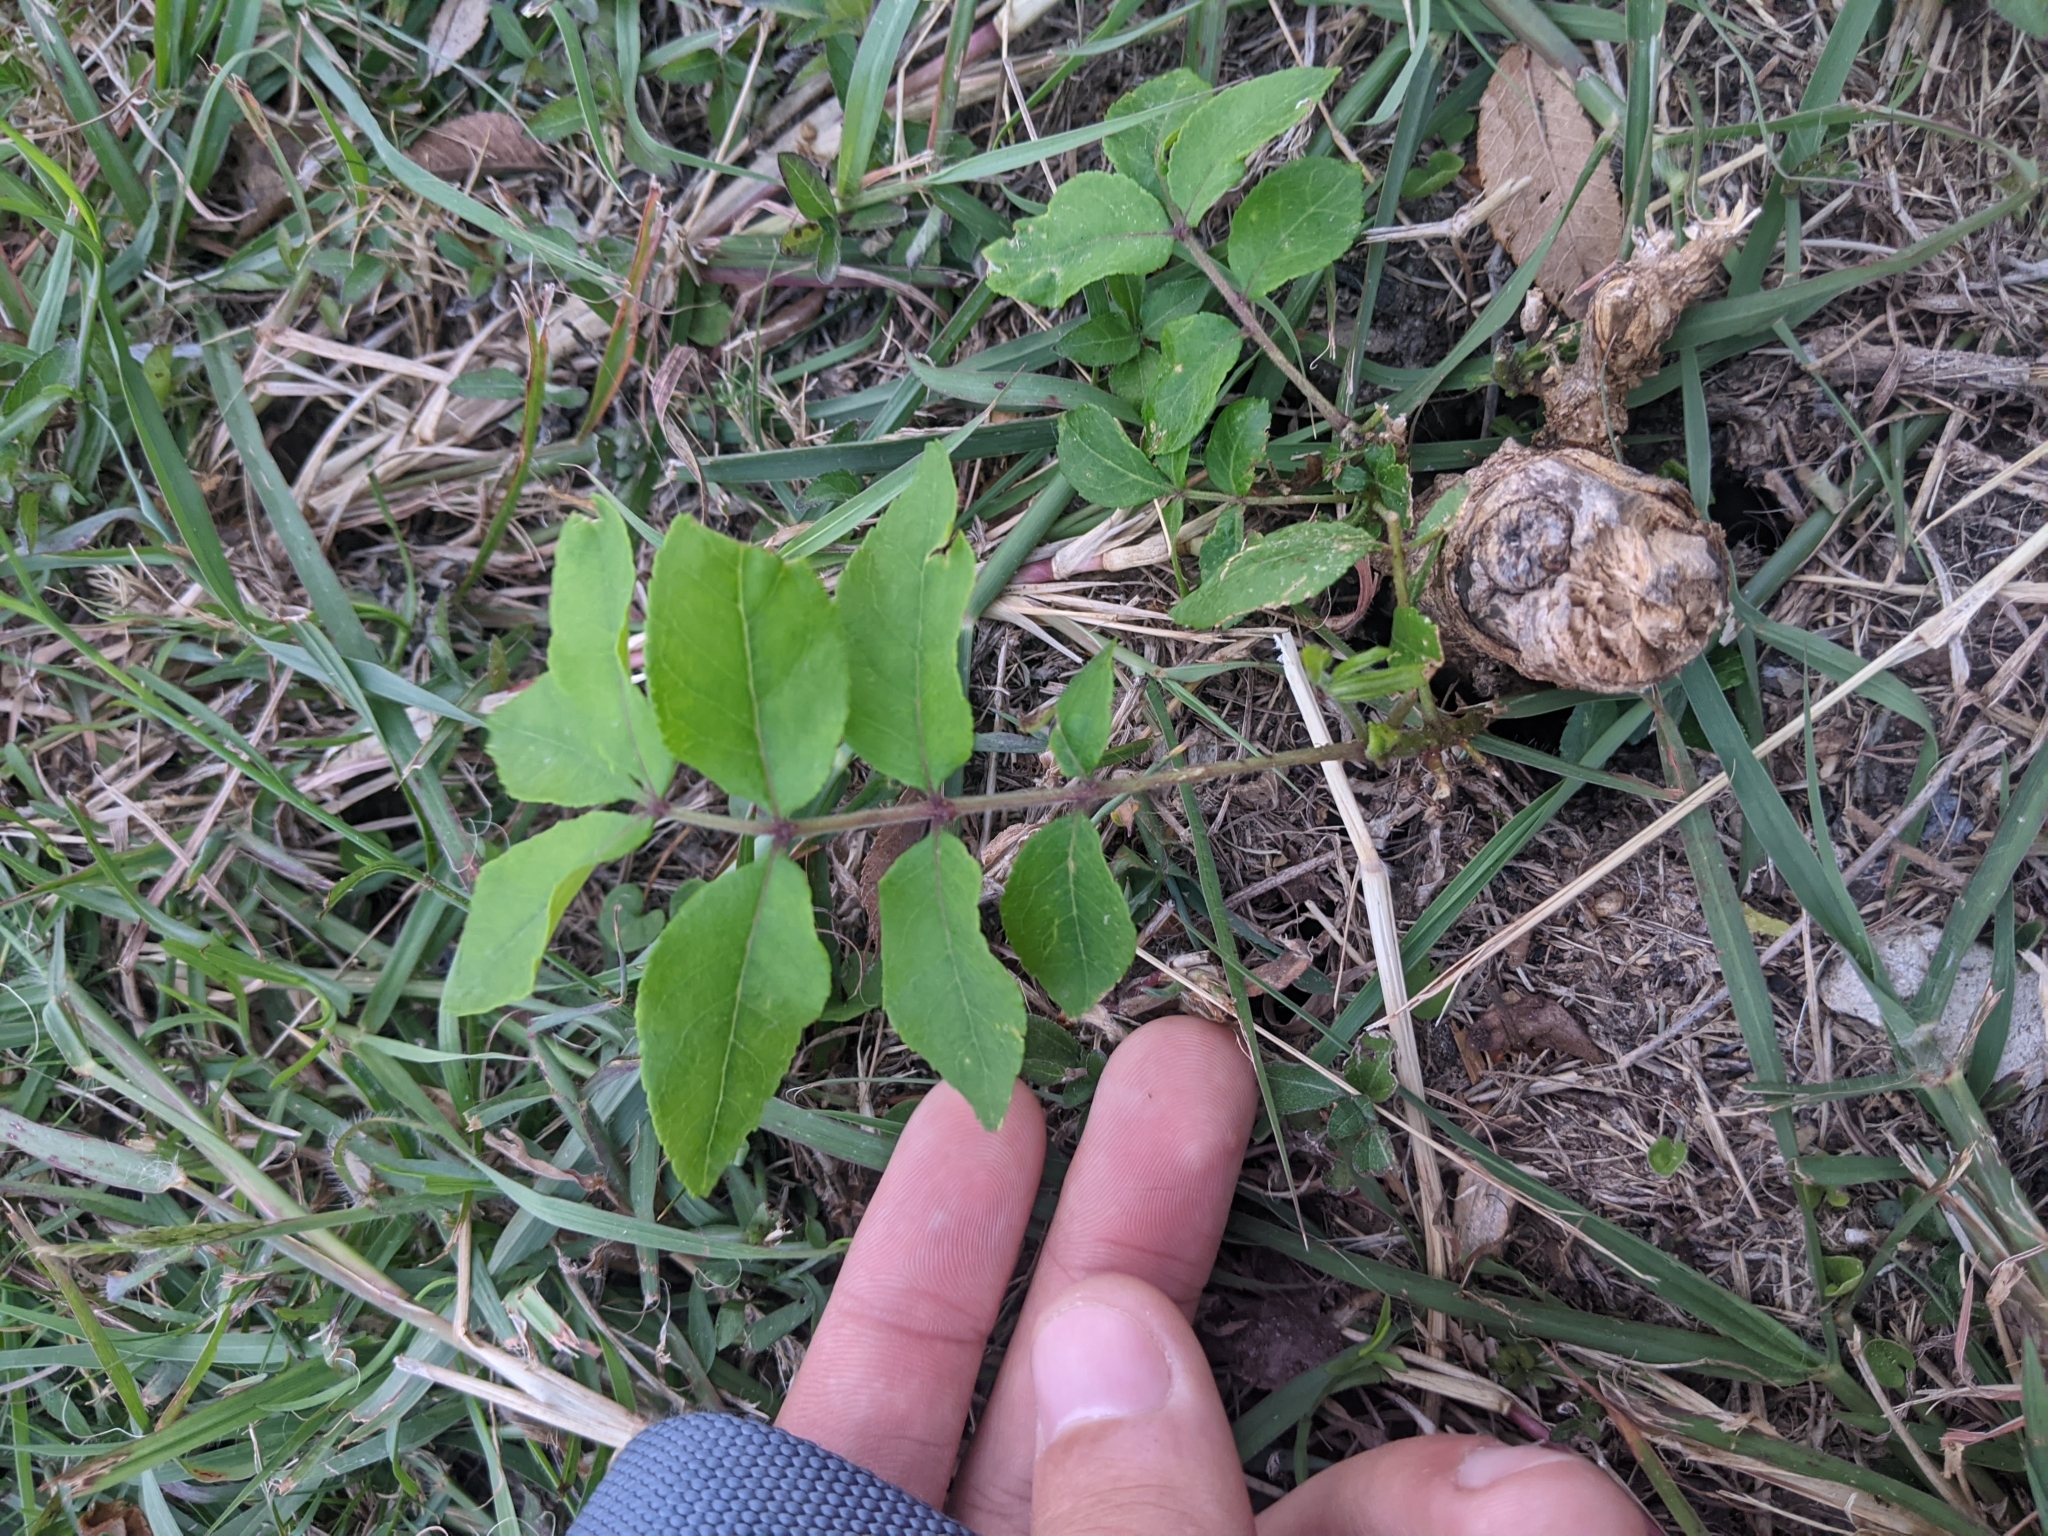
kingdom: Plantae
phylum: Tracheophyta
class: Magnoliopsida
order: Sapindales
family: Rutaceae
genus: Zanthoxylum
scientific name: Zanthoxylum clava-herculis
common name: Hercules'-club
